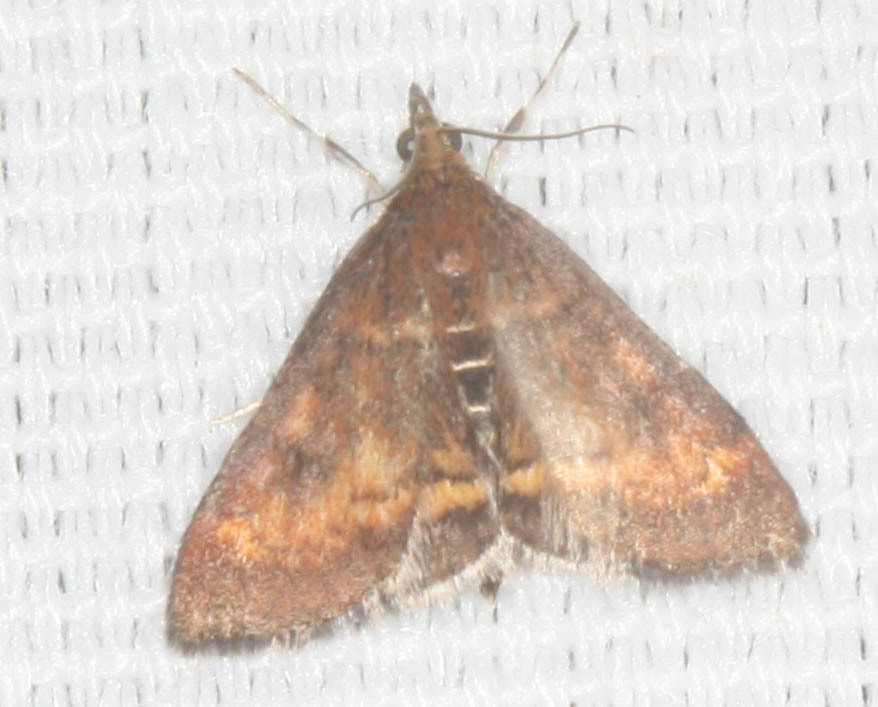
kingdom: Animalia
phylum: Arthropoda
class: Insecta
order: Lepidoptera
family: Crambidae
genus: Pyrausta
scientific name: Pyrausta californicalis
